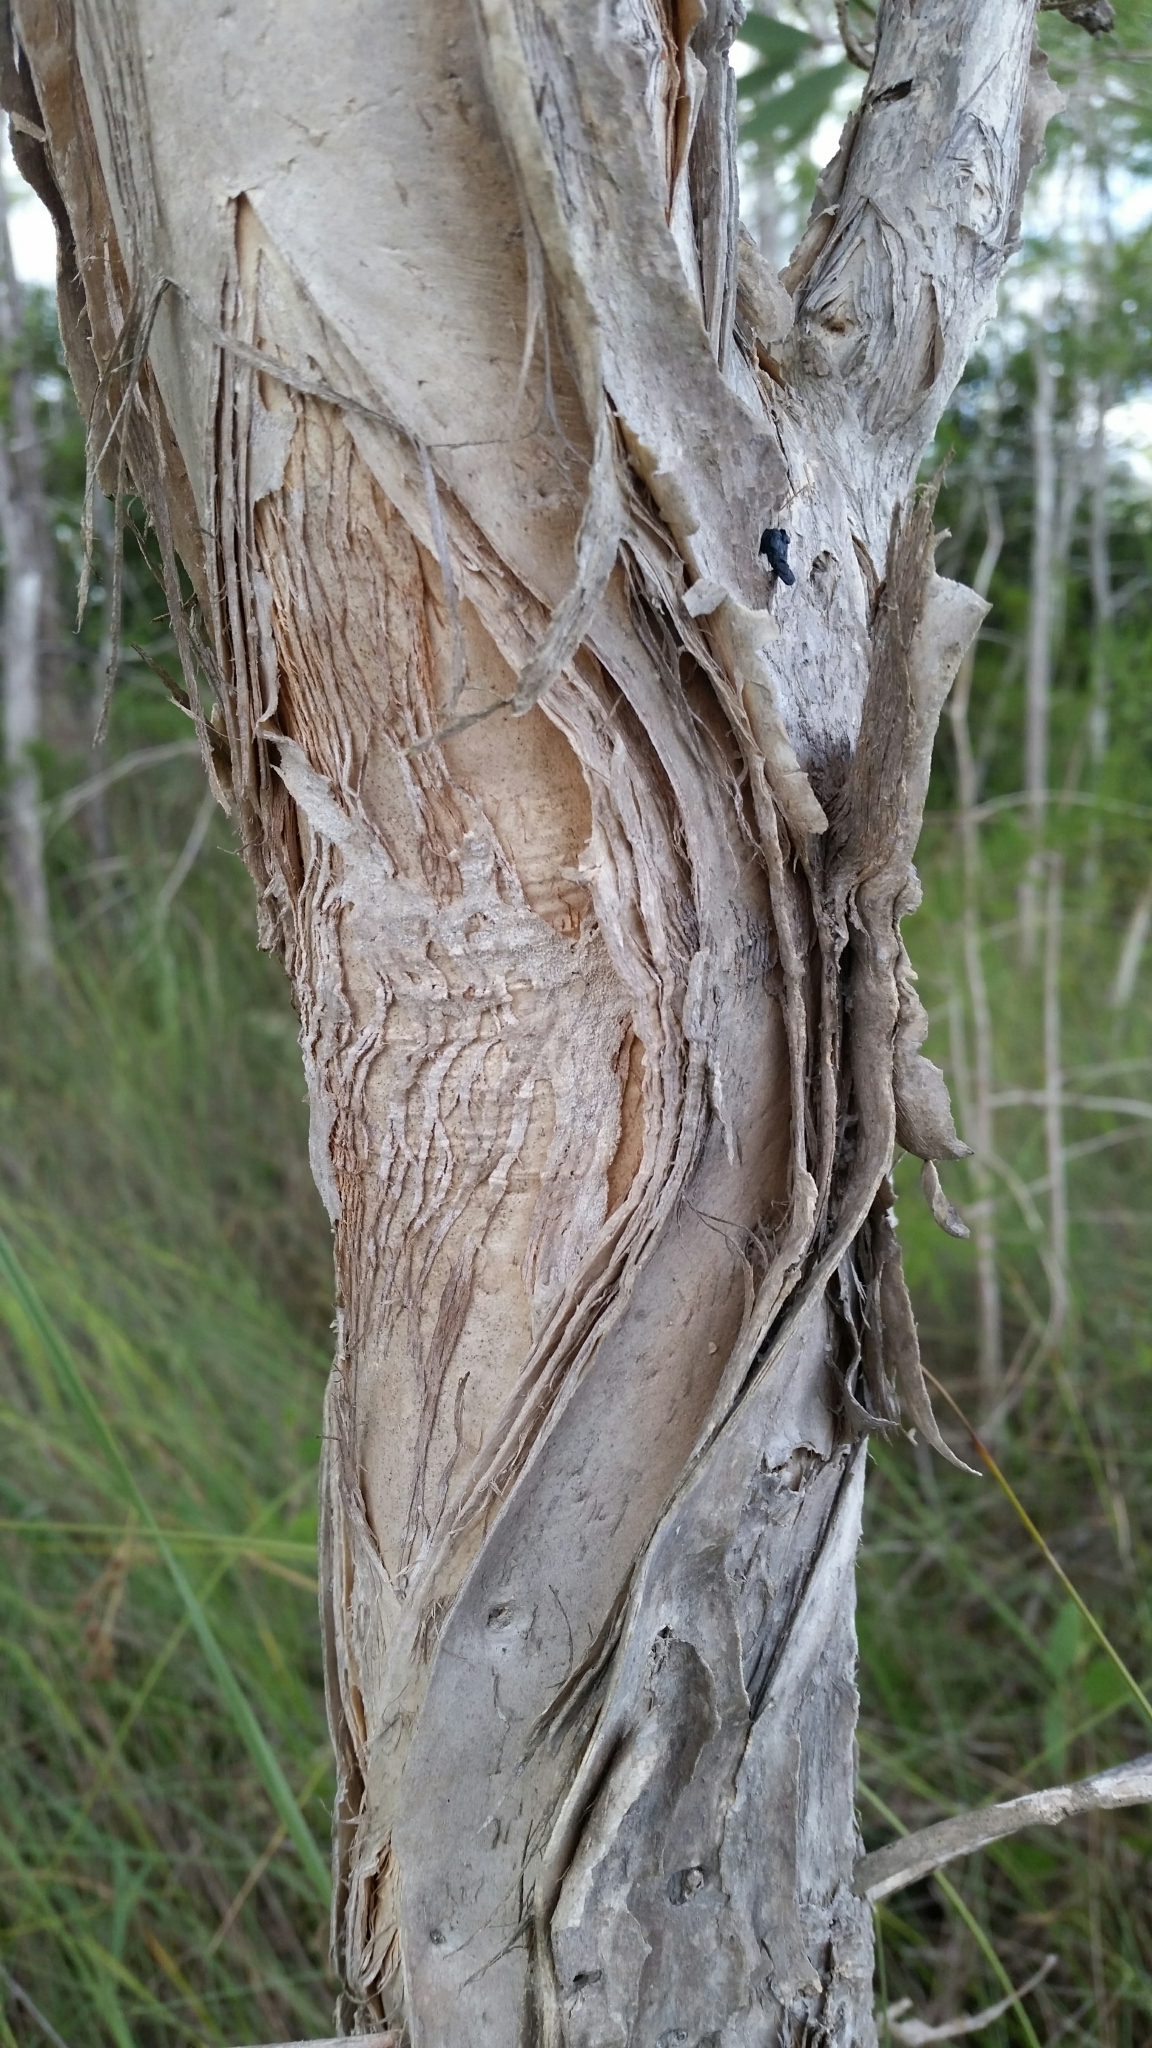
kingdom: Plantae
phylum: Tracheophyta
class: Magnoliopsida
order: Myrtales
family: Myrtaceae
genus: Melaleuca
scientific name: Melaleuca quinquenervia
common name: Punktree
